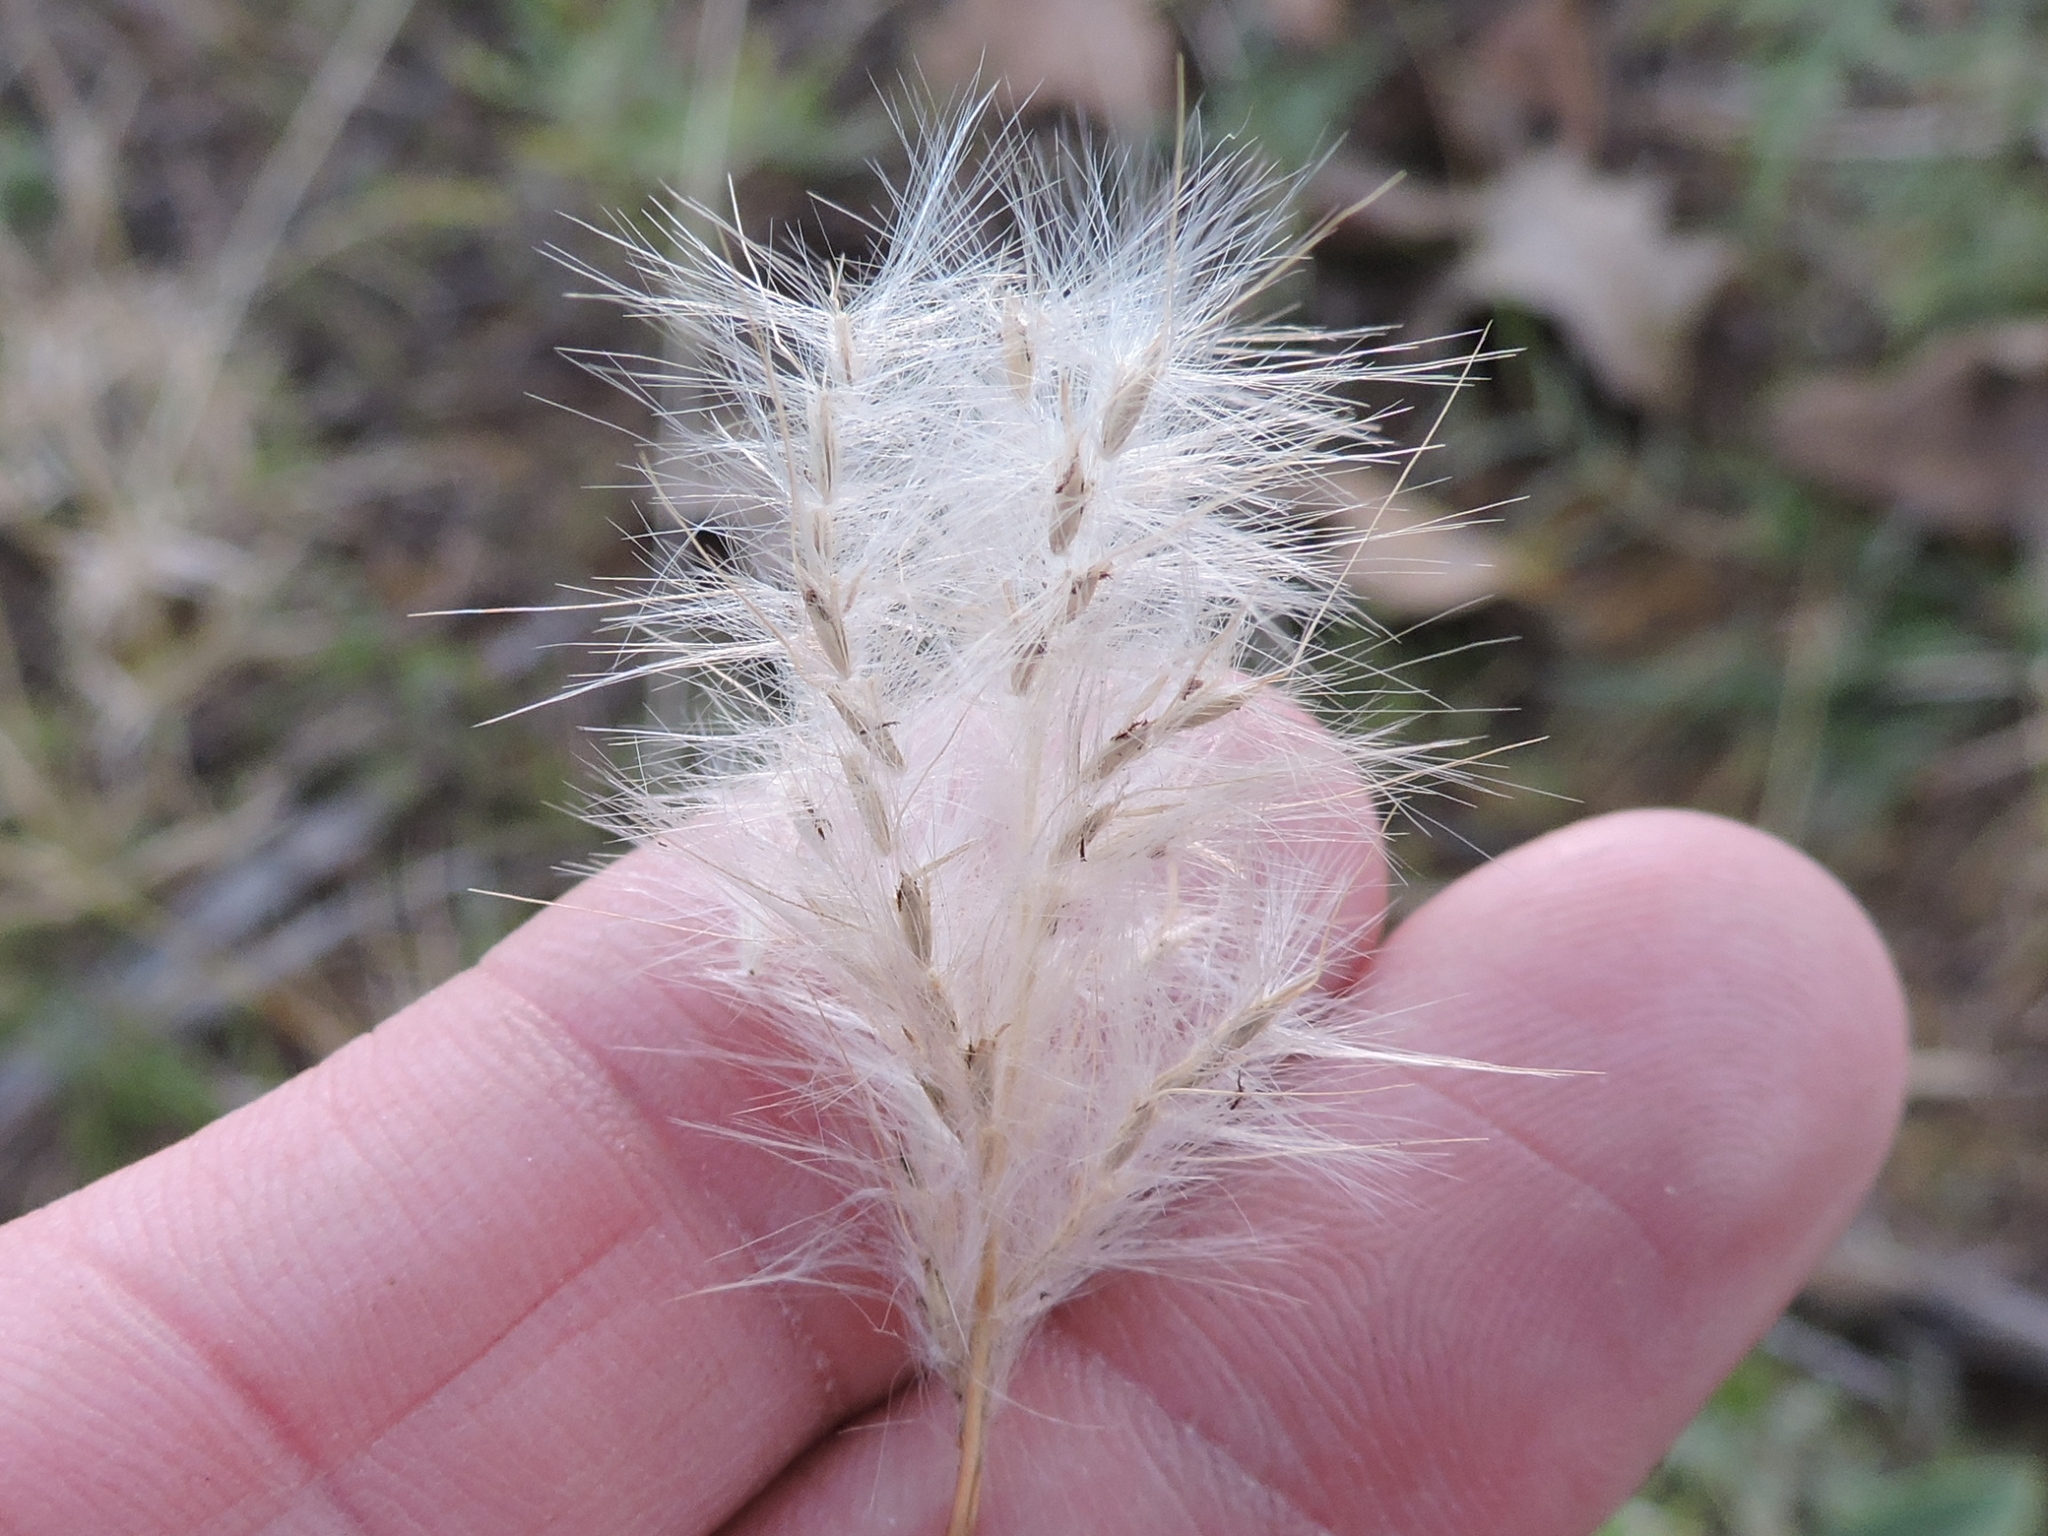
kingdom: Plantae
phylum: Tracheophyta
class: Liliopsida
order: Poales
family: Poaceae
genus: Bothriochloa
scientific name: Bothriochloa torreyana
